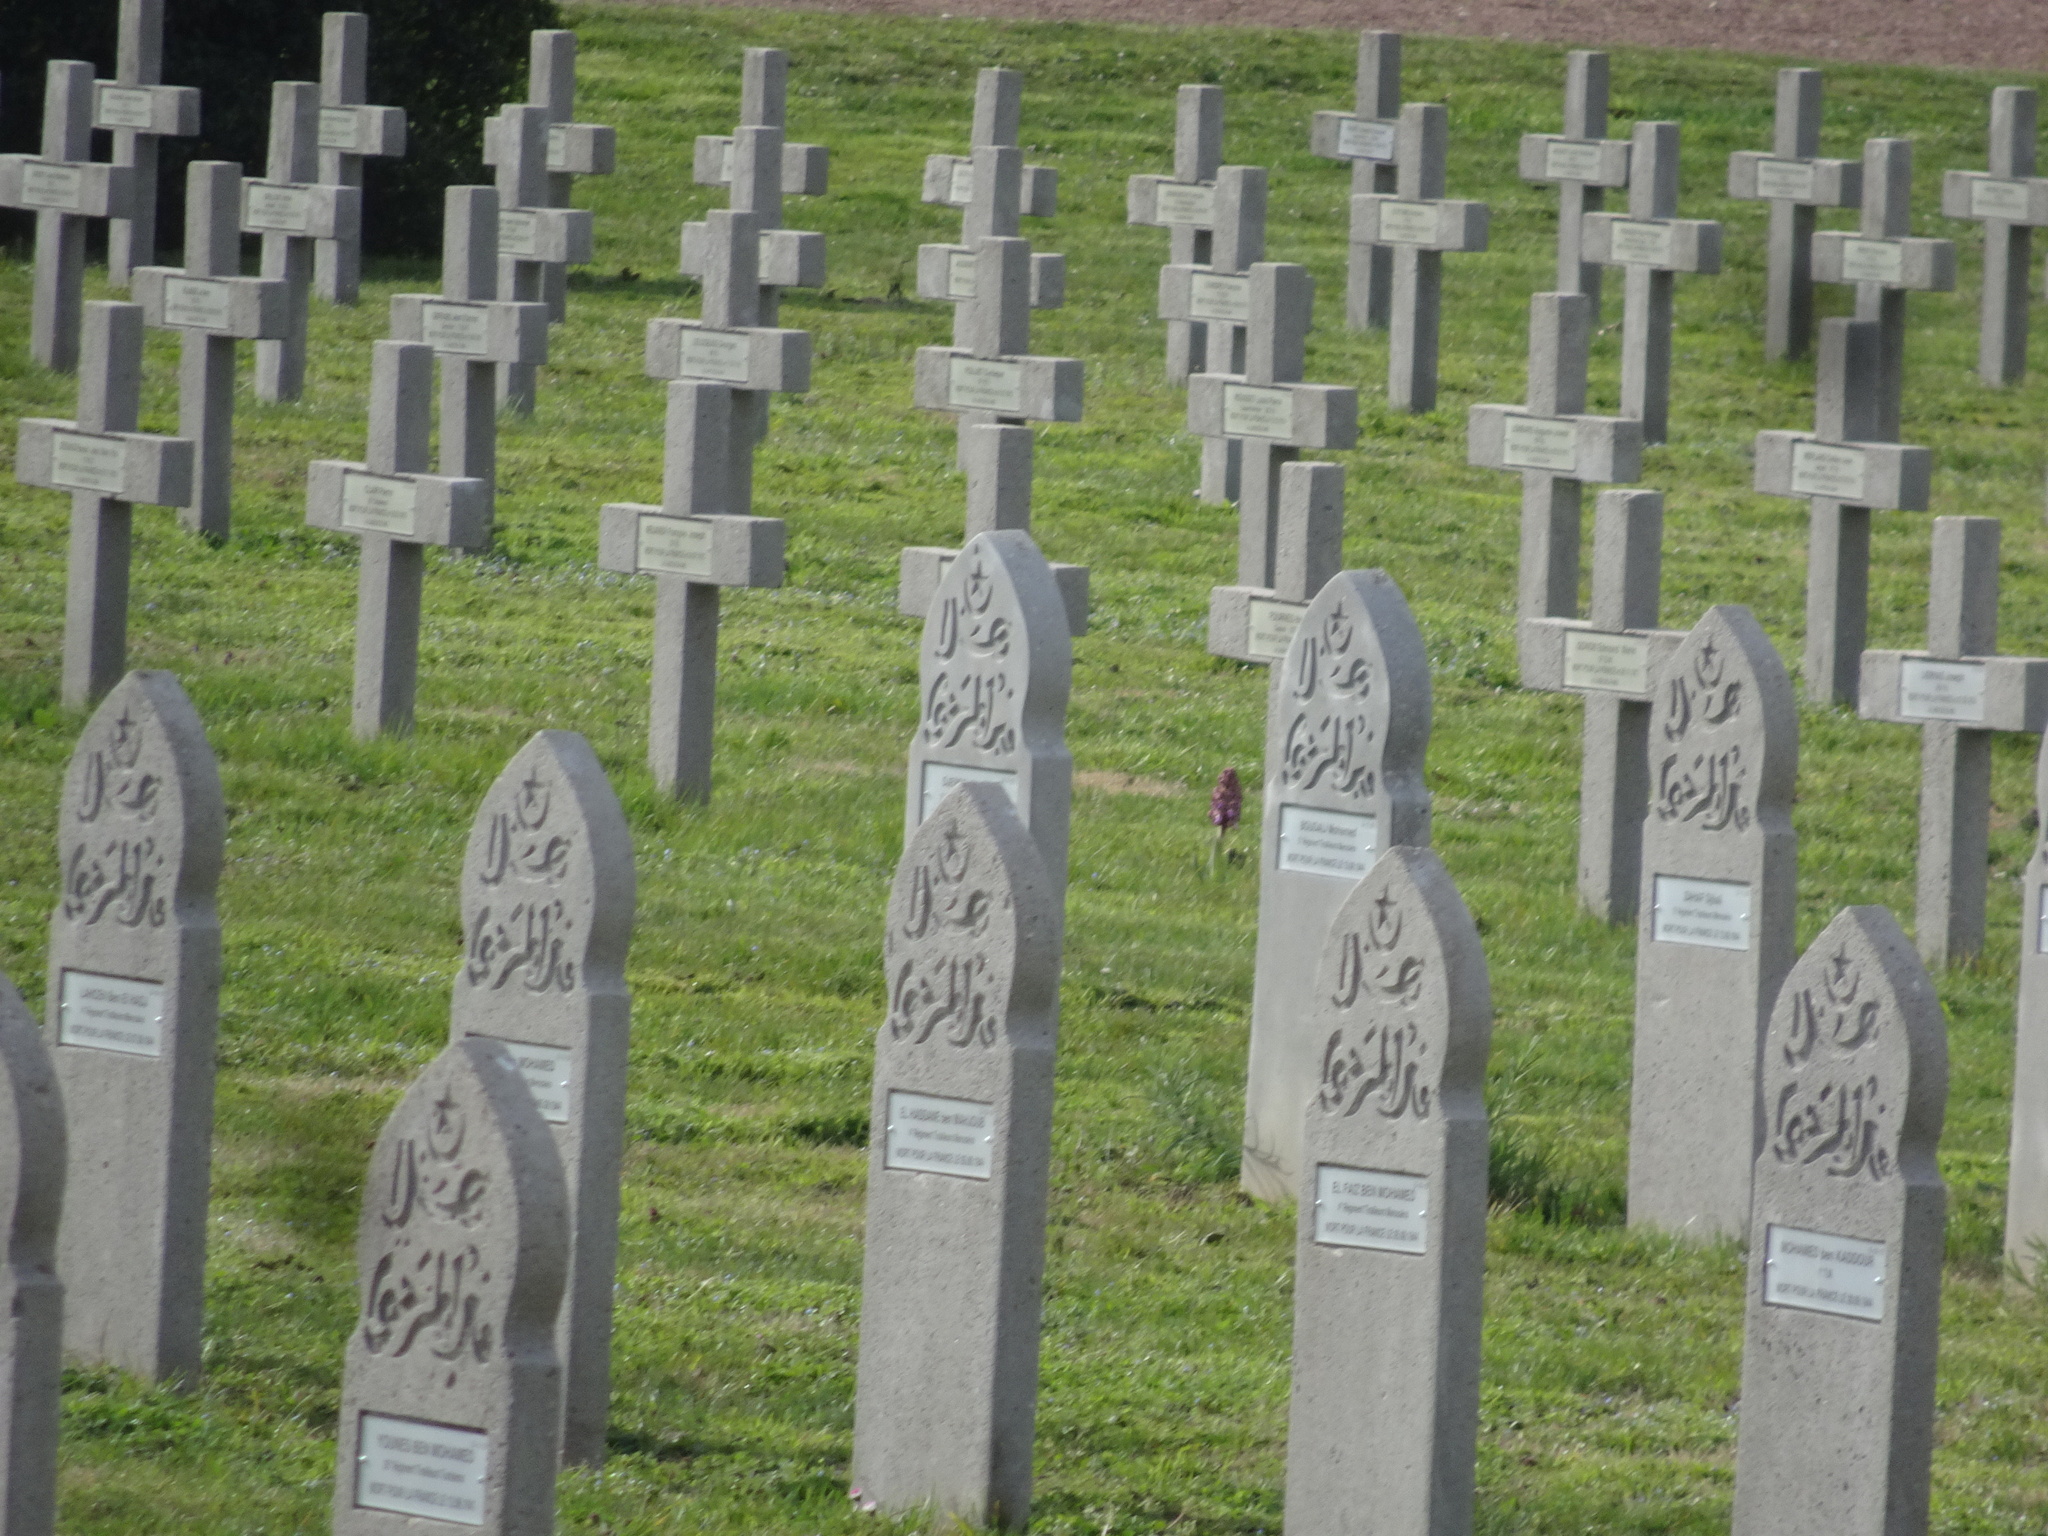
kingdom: Plantae
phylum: Tracheophyta
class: Liliopsida
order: Asparagales
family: Orchidaceae
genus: Himantoglossum
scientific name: Himantoglossum robertianum
